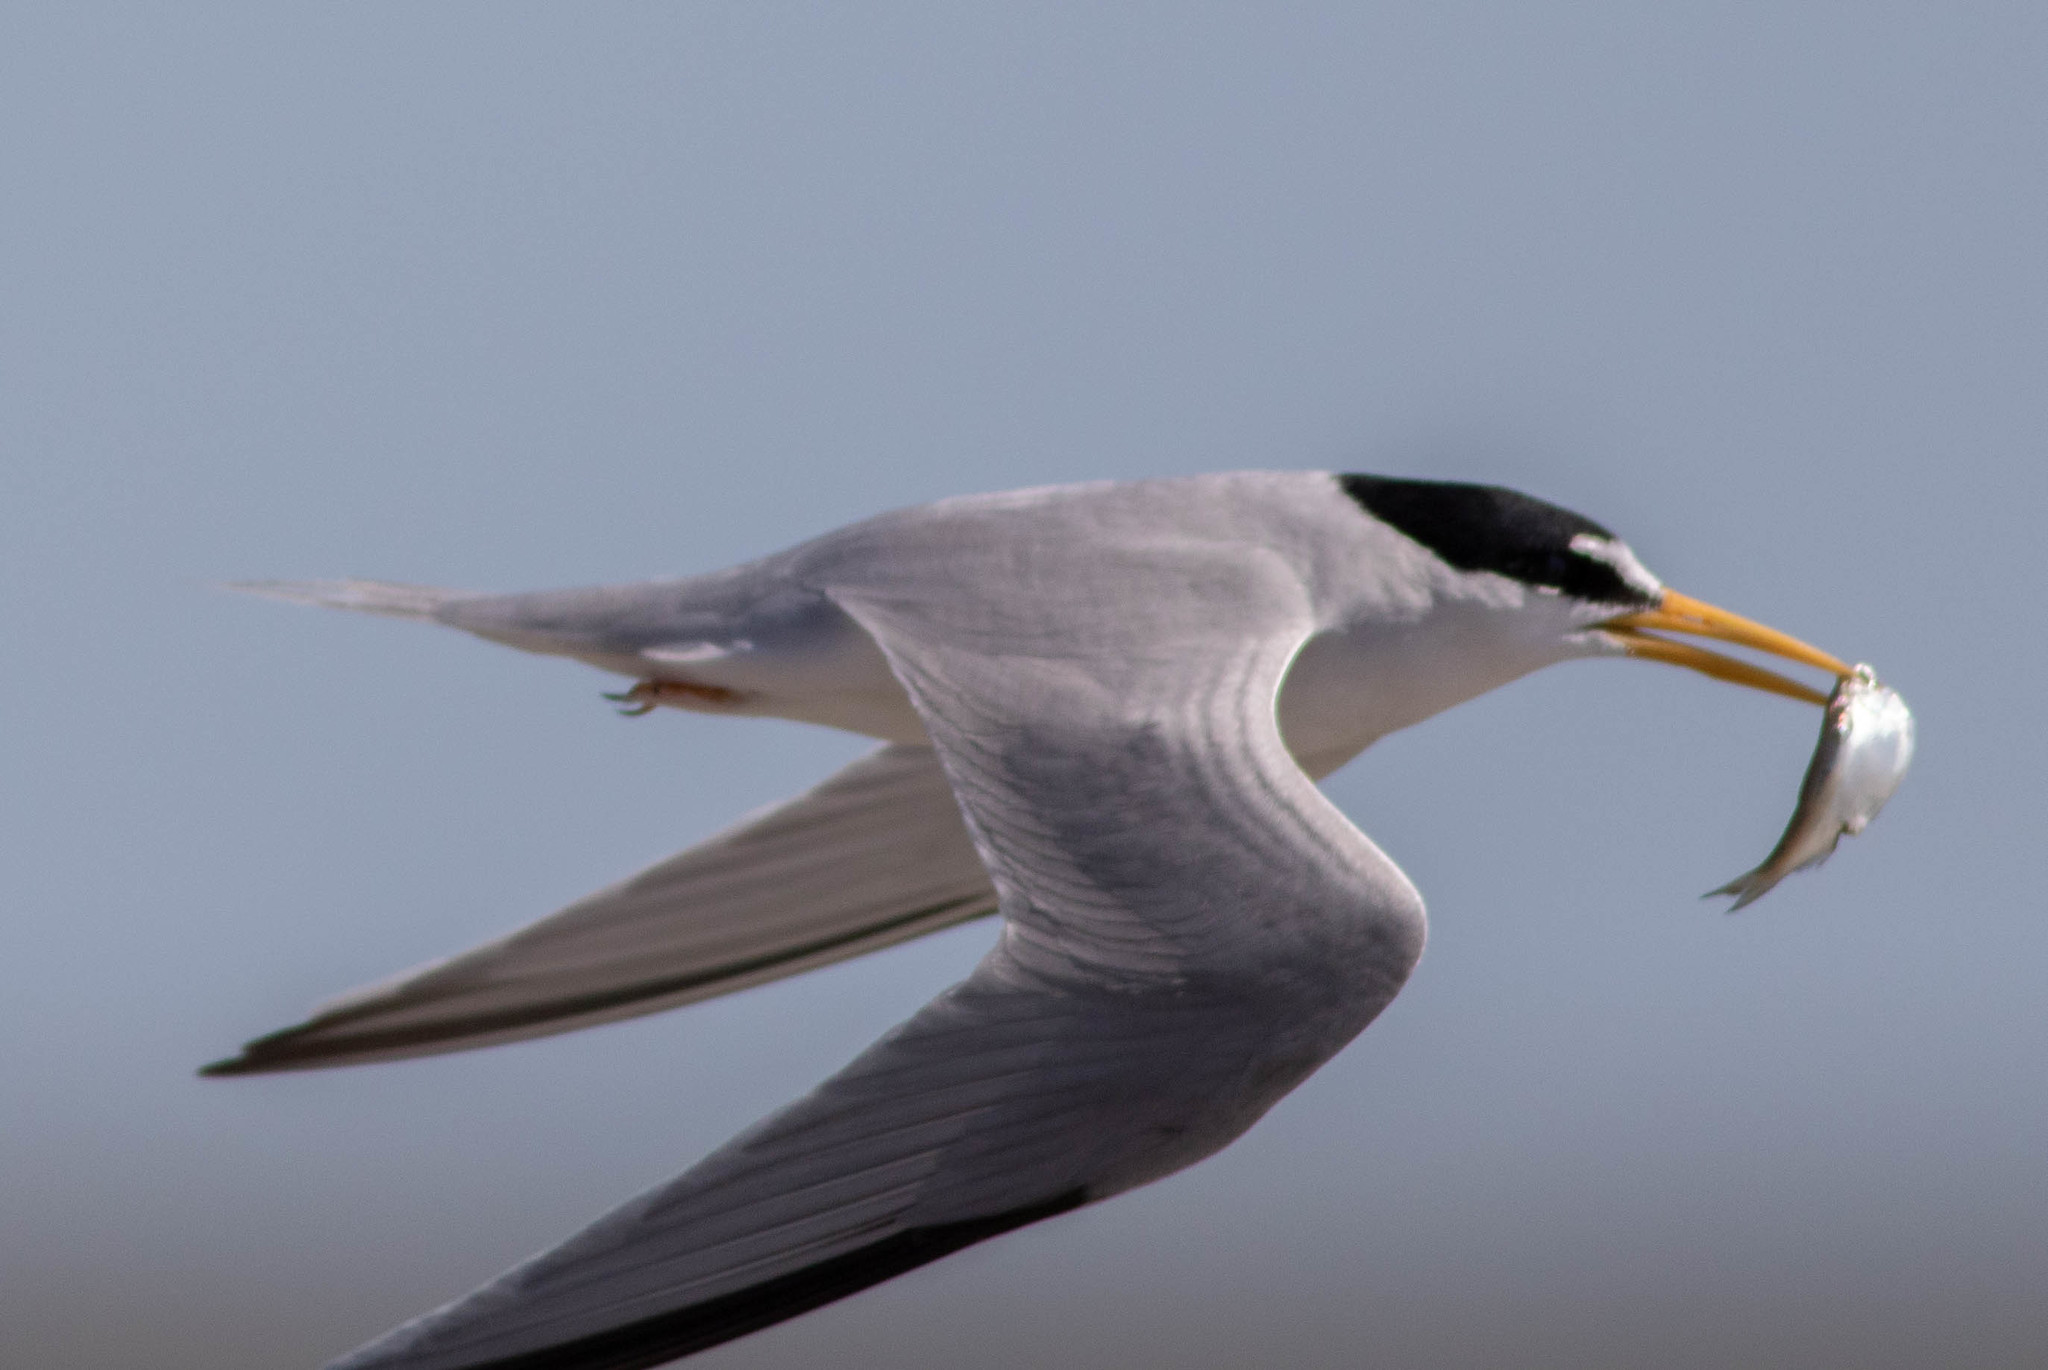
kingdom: Animalia
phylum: Chordata
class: Aves
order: Charadriiformes
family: Laridae
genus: Sternula
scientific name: Sternula antillarum
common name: Least tern
